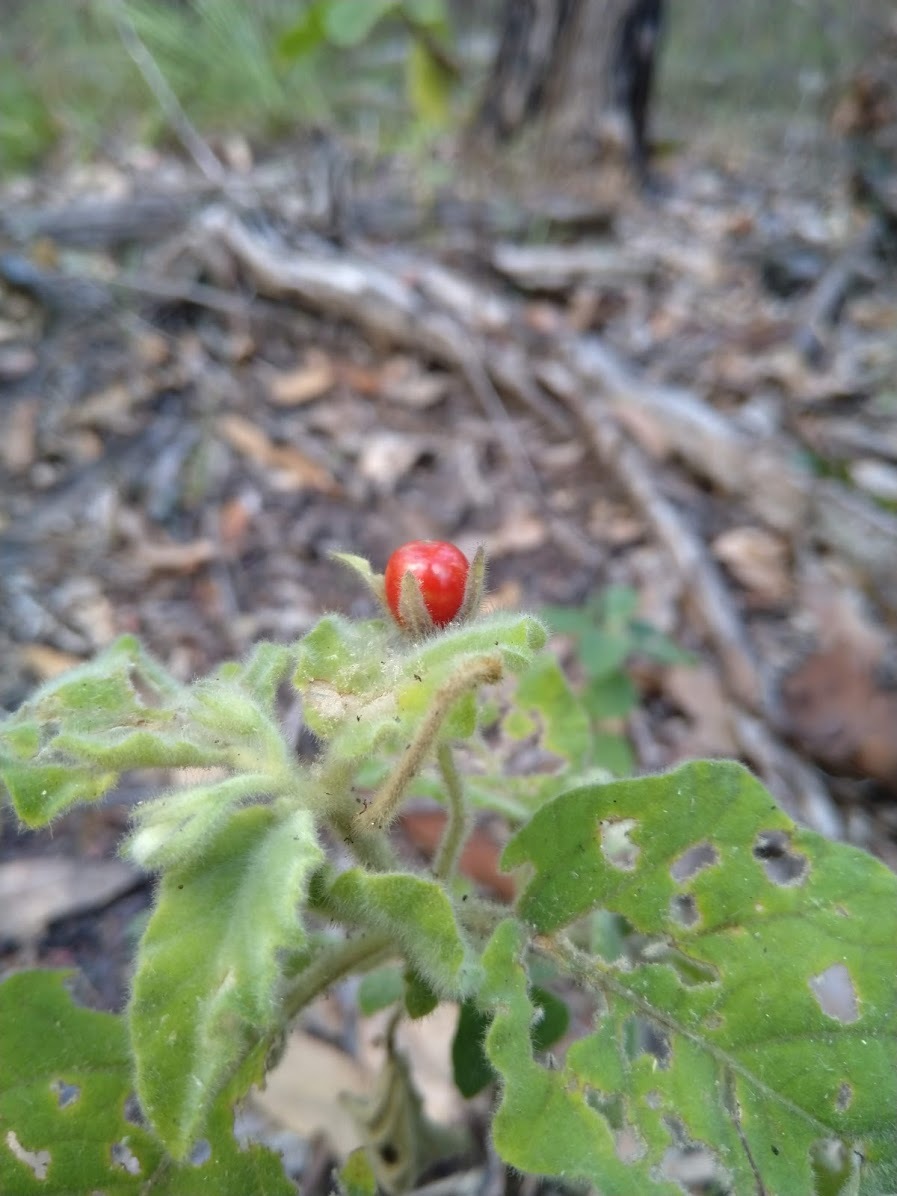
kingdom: Plantae
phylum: Tracheophyta
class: Magnoliopsida
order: Solanales
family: Solanaceae
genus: Solanum
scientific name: Solanum gympiense
